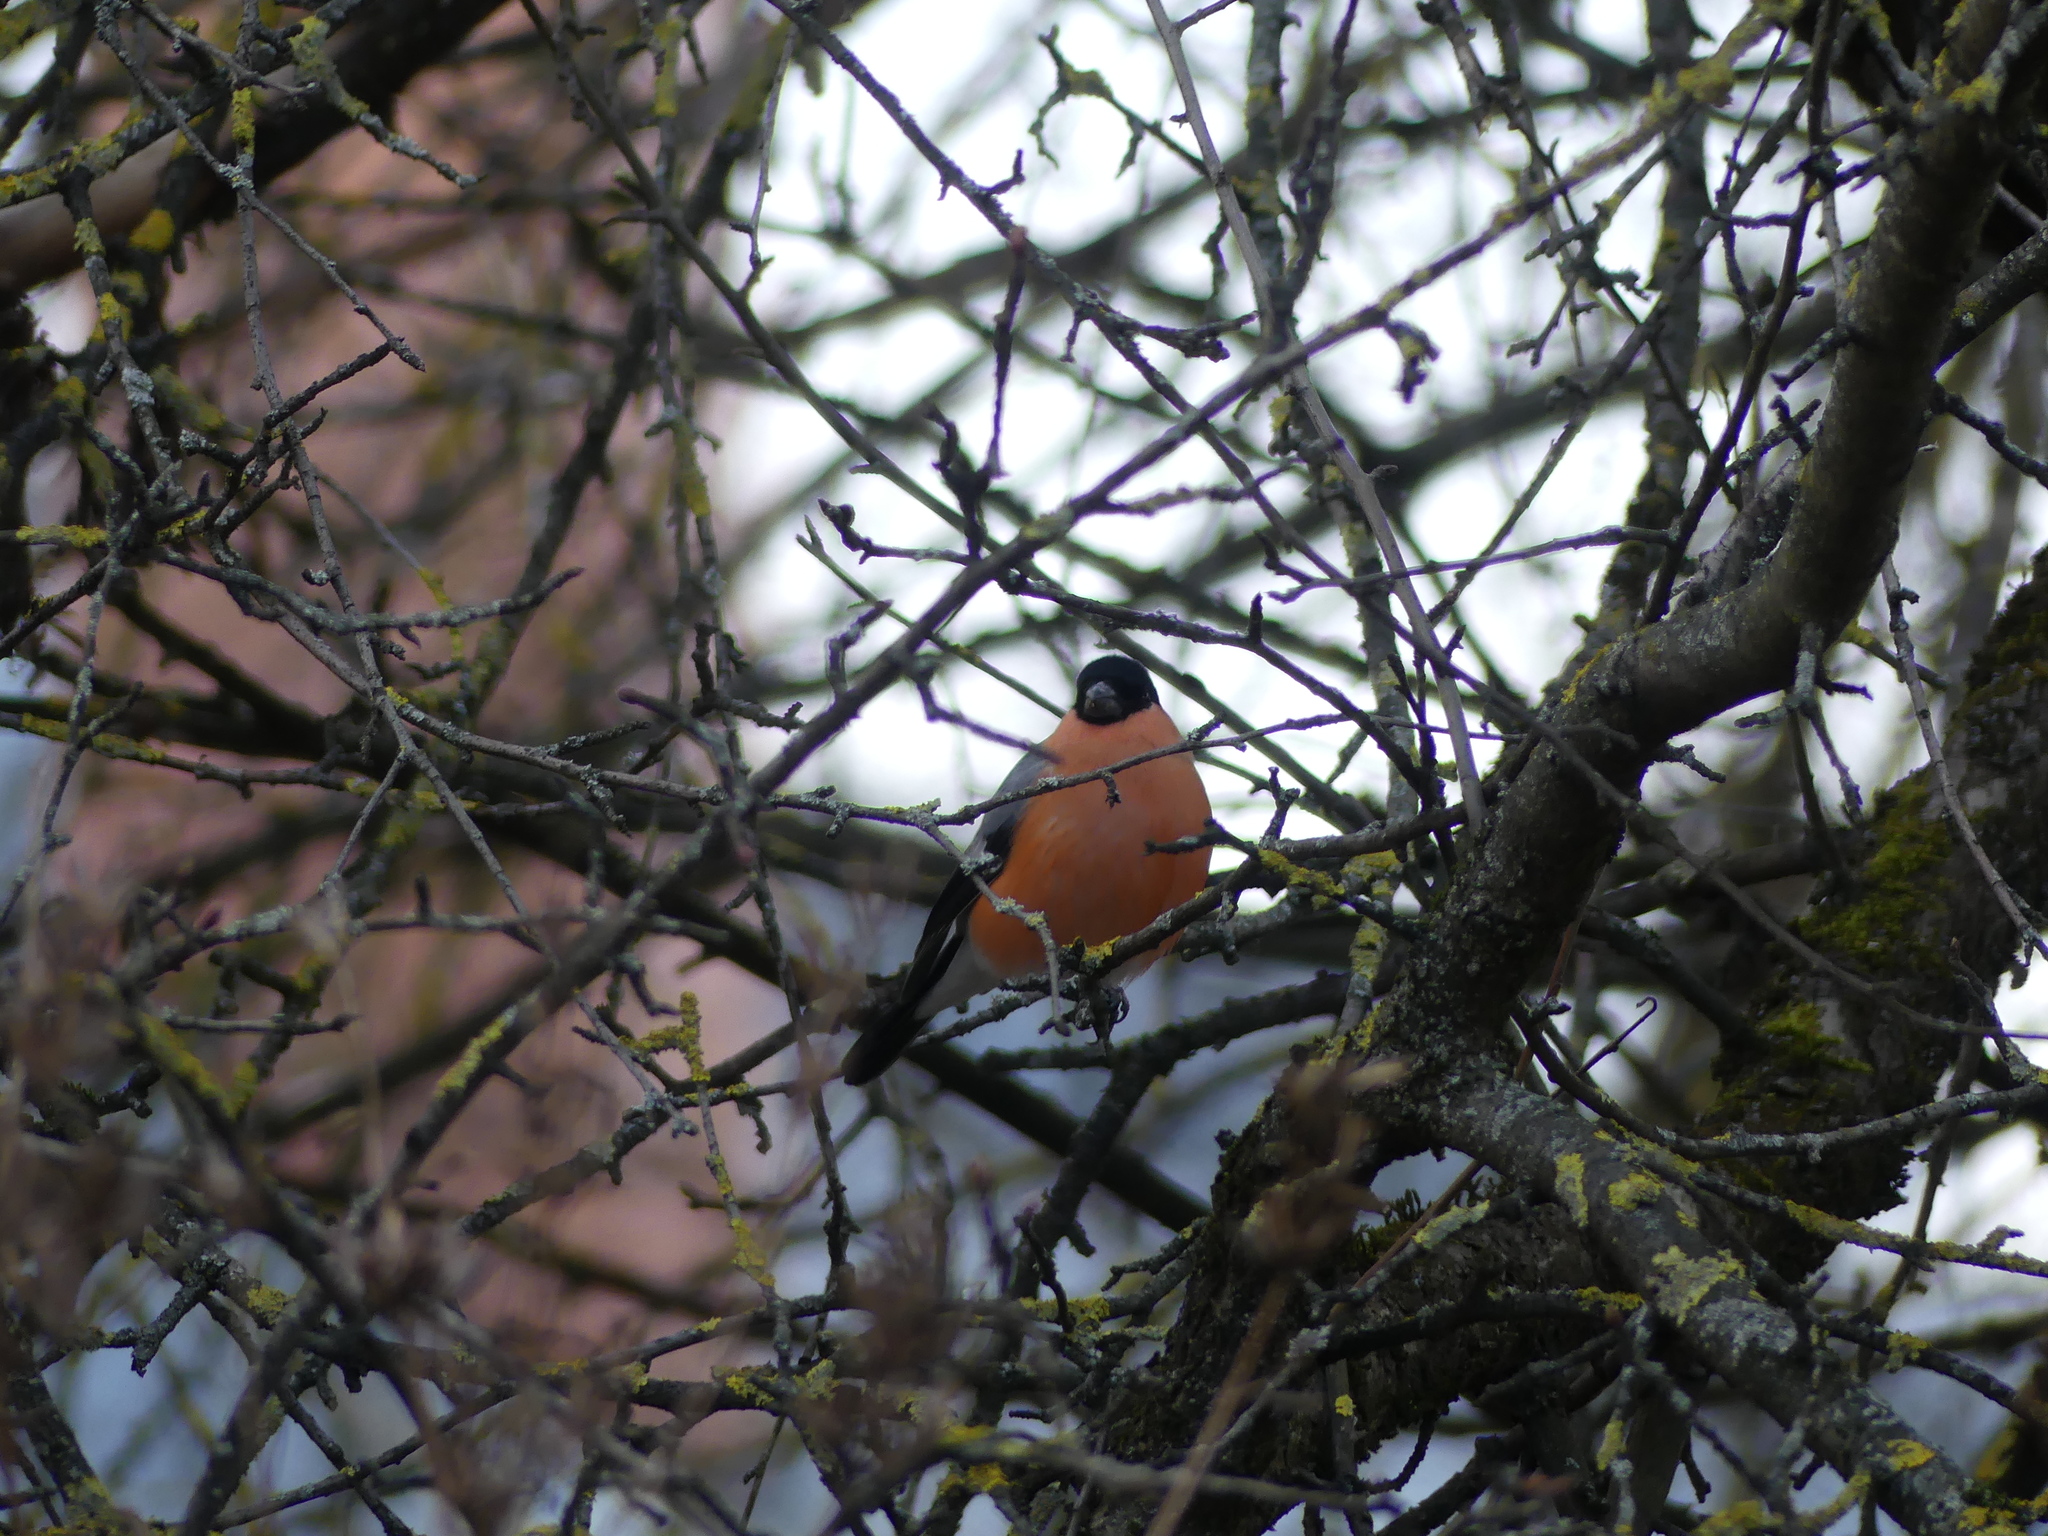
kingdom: Animalia
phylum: Chordata
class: Aves
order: Passeriformes
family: Fringillidae
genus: Pyrrhula
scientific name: Pyrrhula pyrrhula
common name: Eurasian bullfinch
